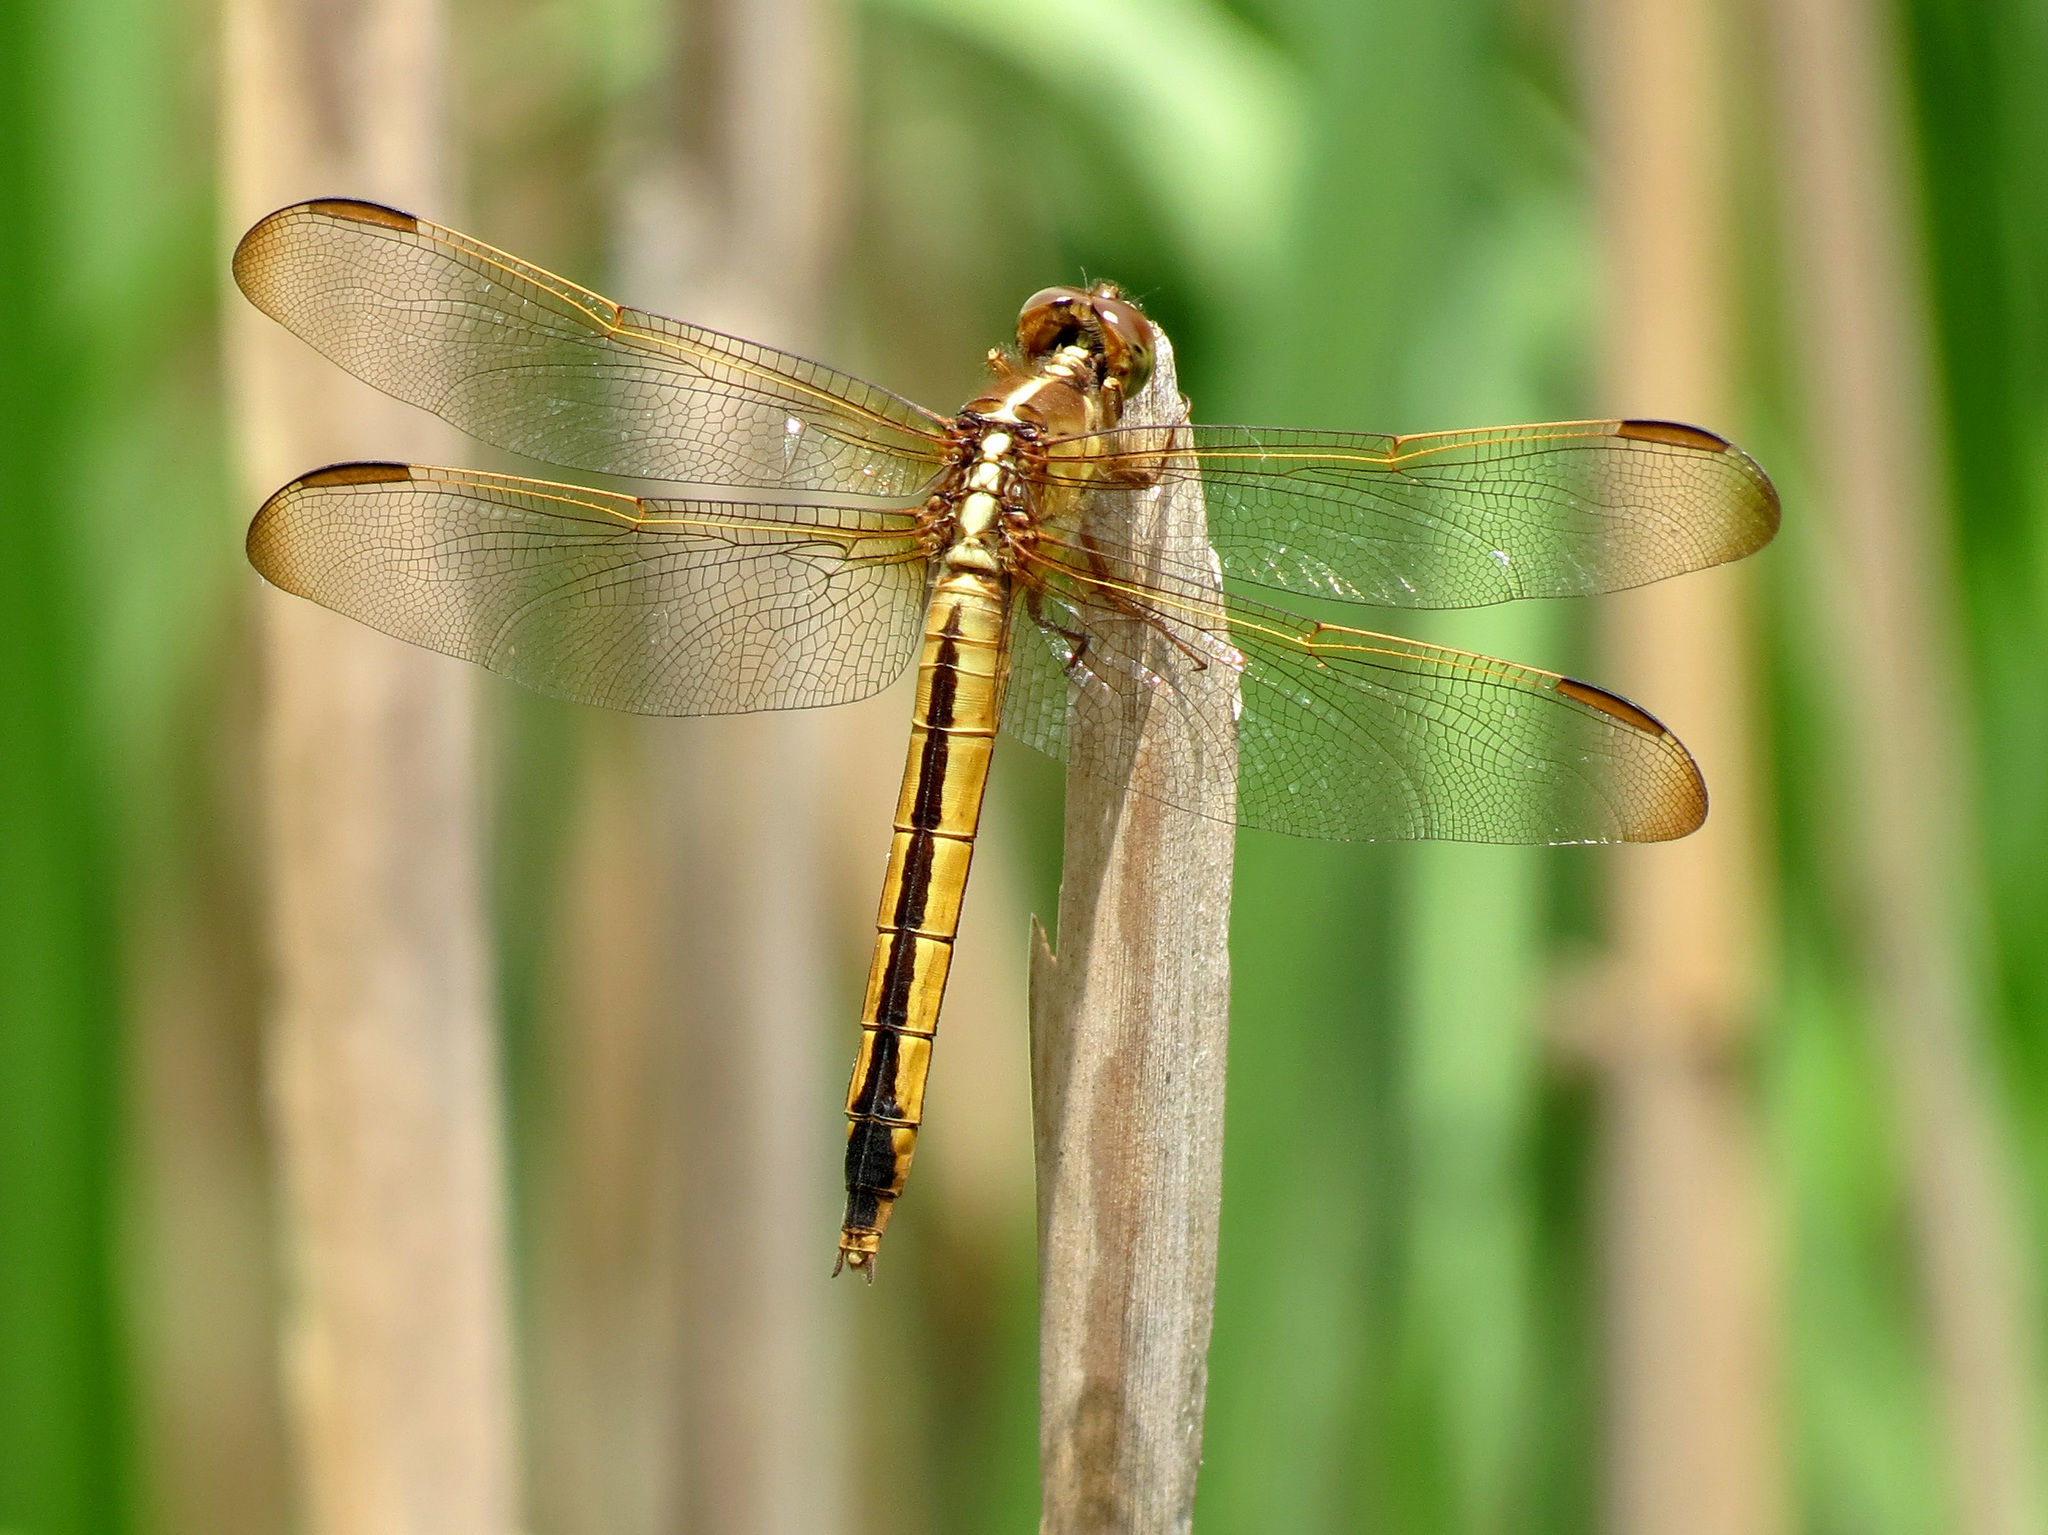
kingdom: Animalia
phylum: Arthropoda
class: Insecta
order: Odonata
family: Libellulidae
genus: Libellula
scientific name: Libellula needhami
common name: Needham's skimmer
